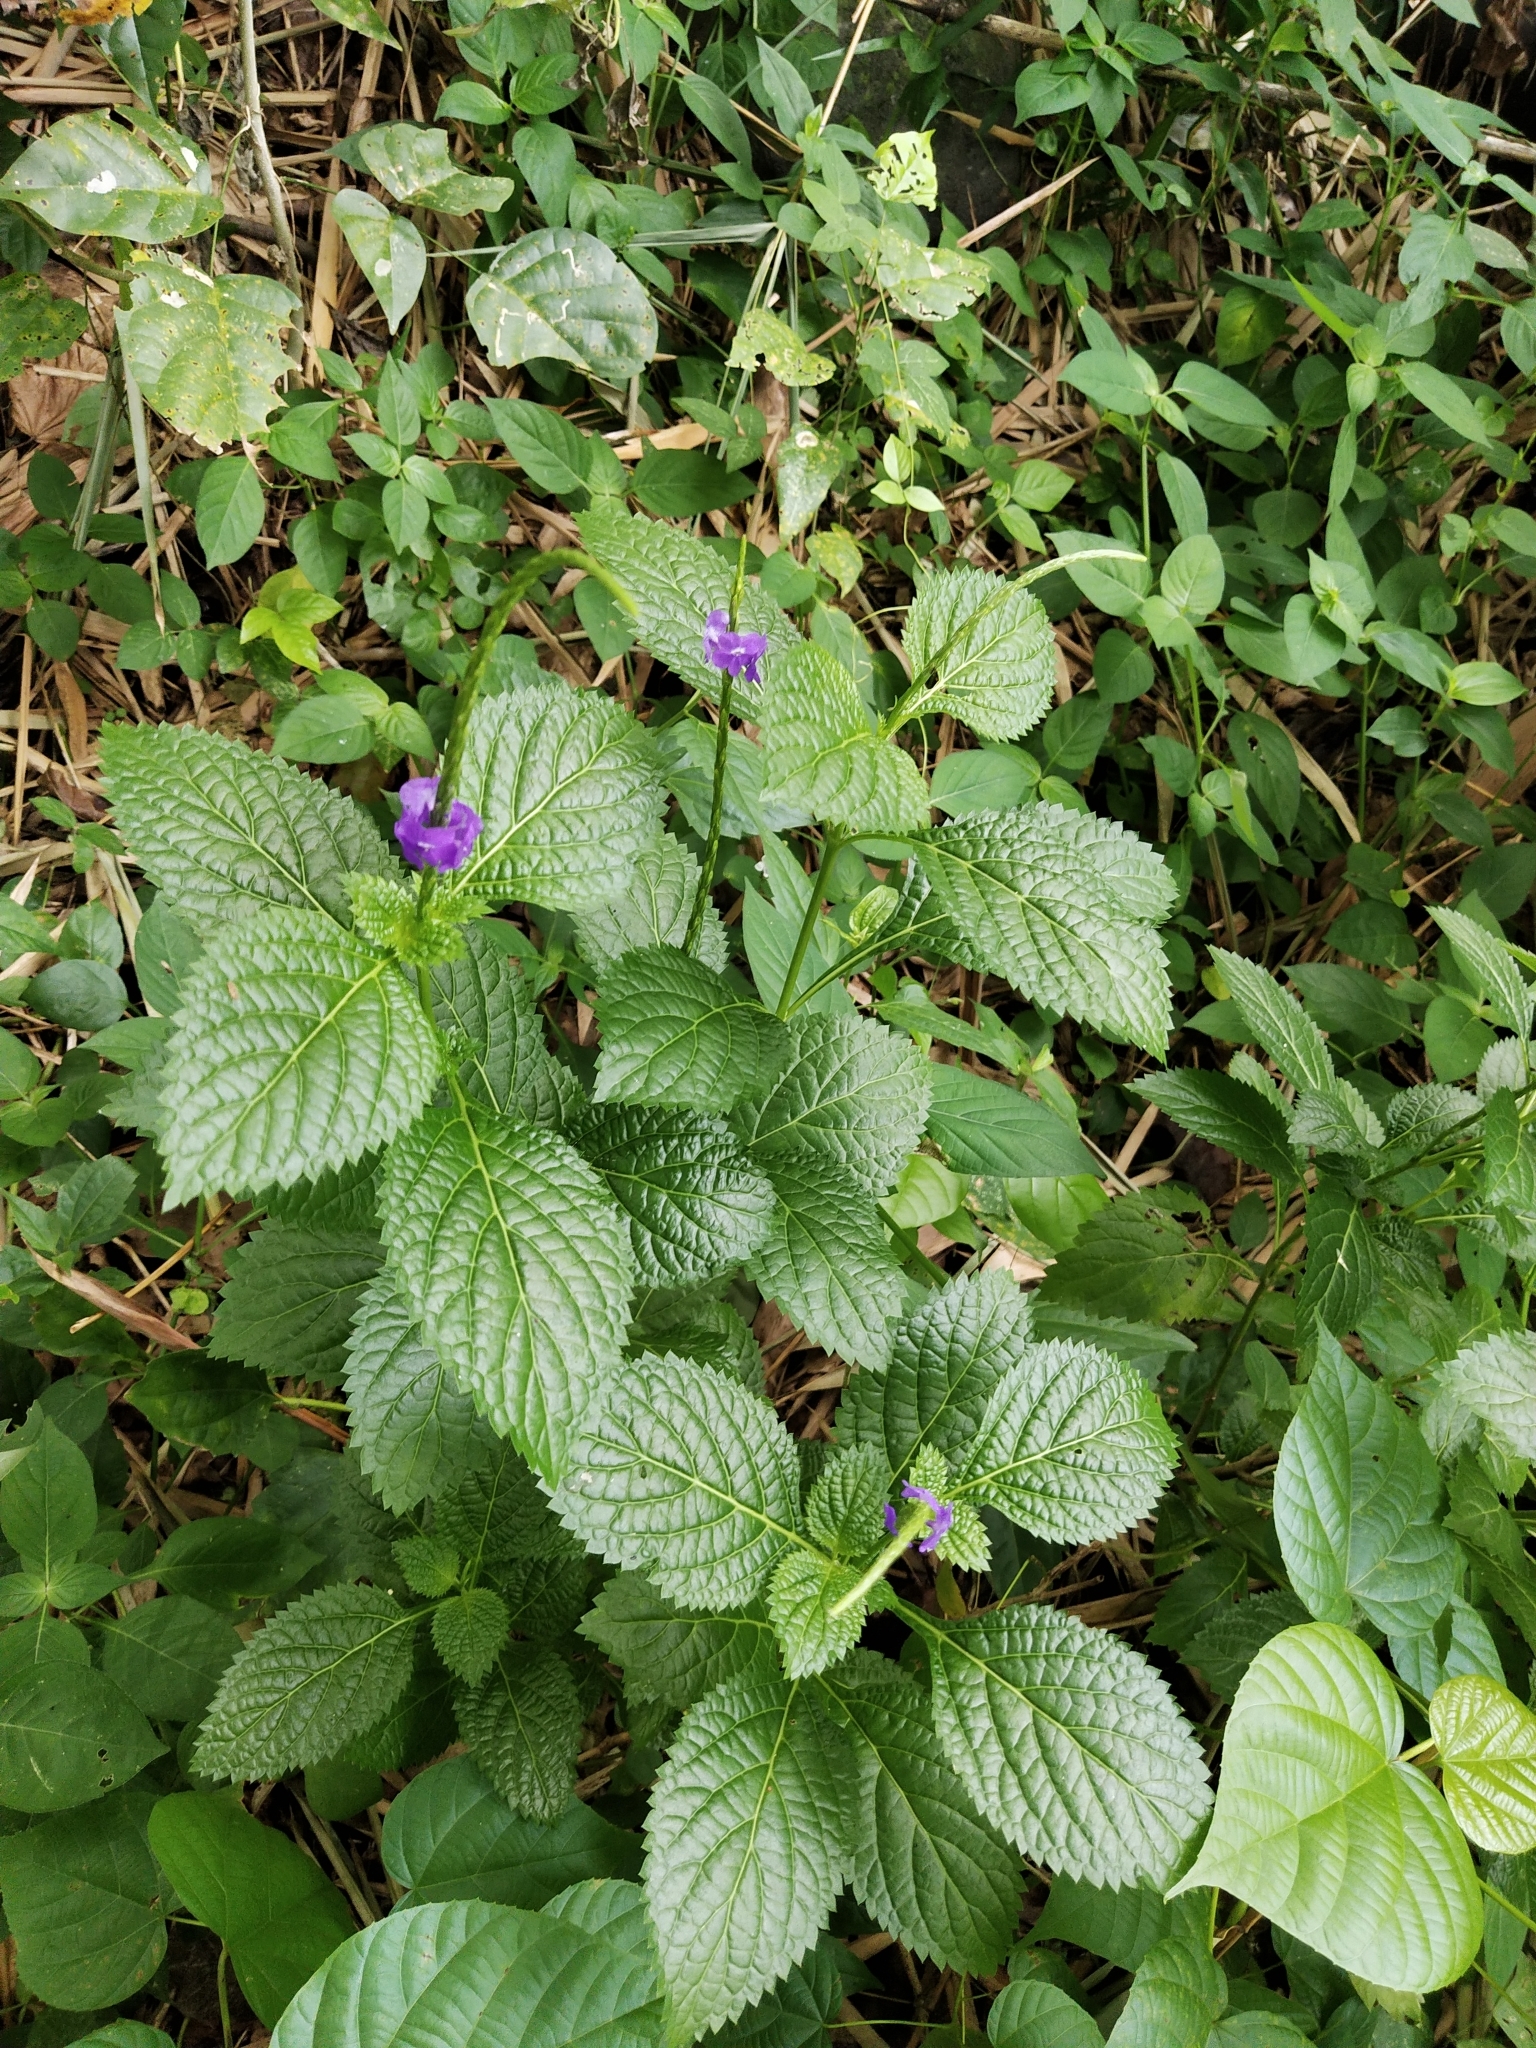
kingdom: Plantae
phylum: Tracheophyta
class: Magnoliopsida
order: Lamiales
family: Verbenaceae
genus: Stachytarpheta
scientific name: Stachytarpheta cayennensis
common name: Cayenne porterweed
